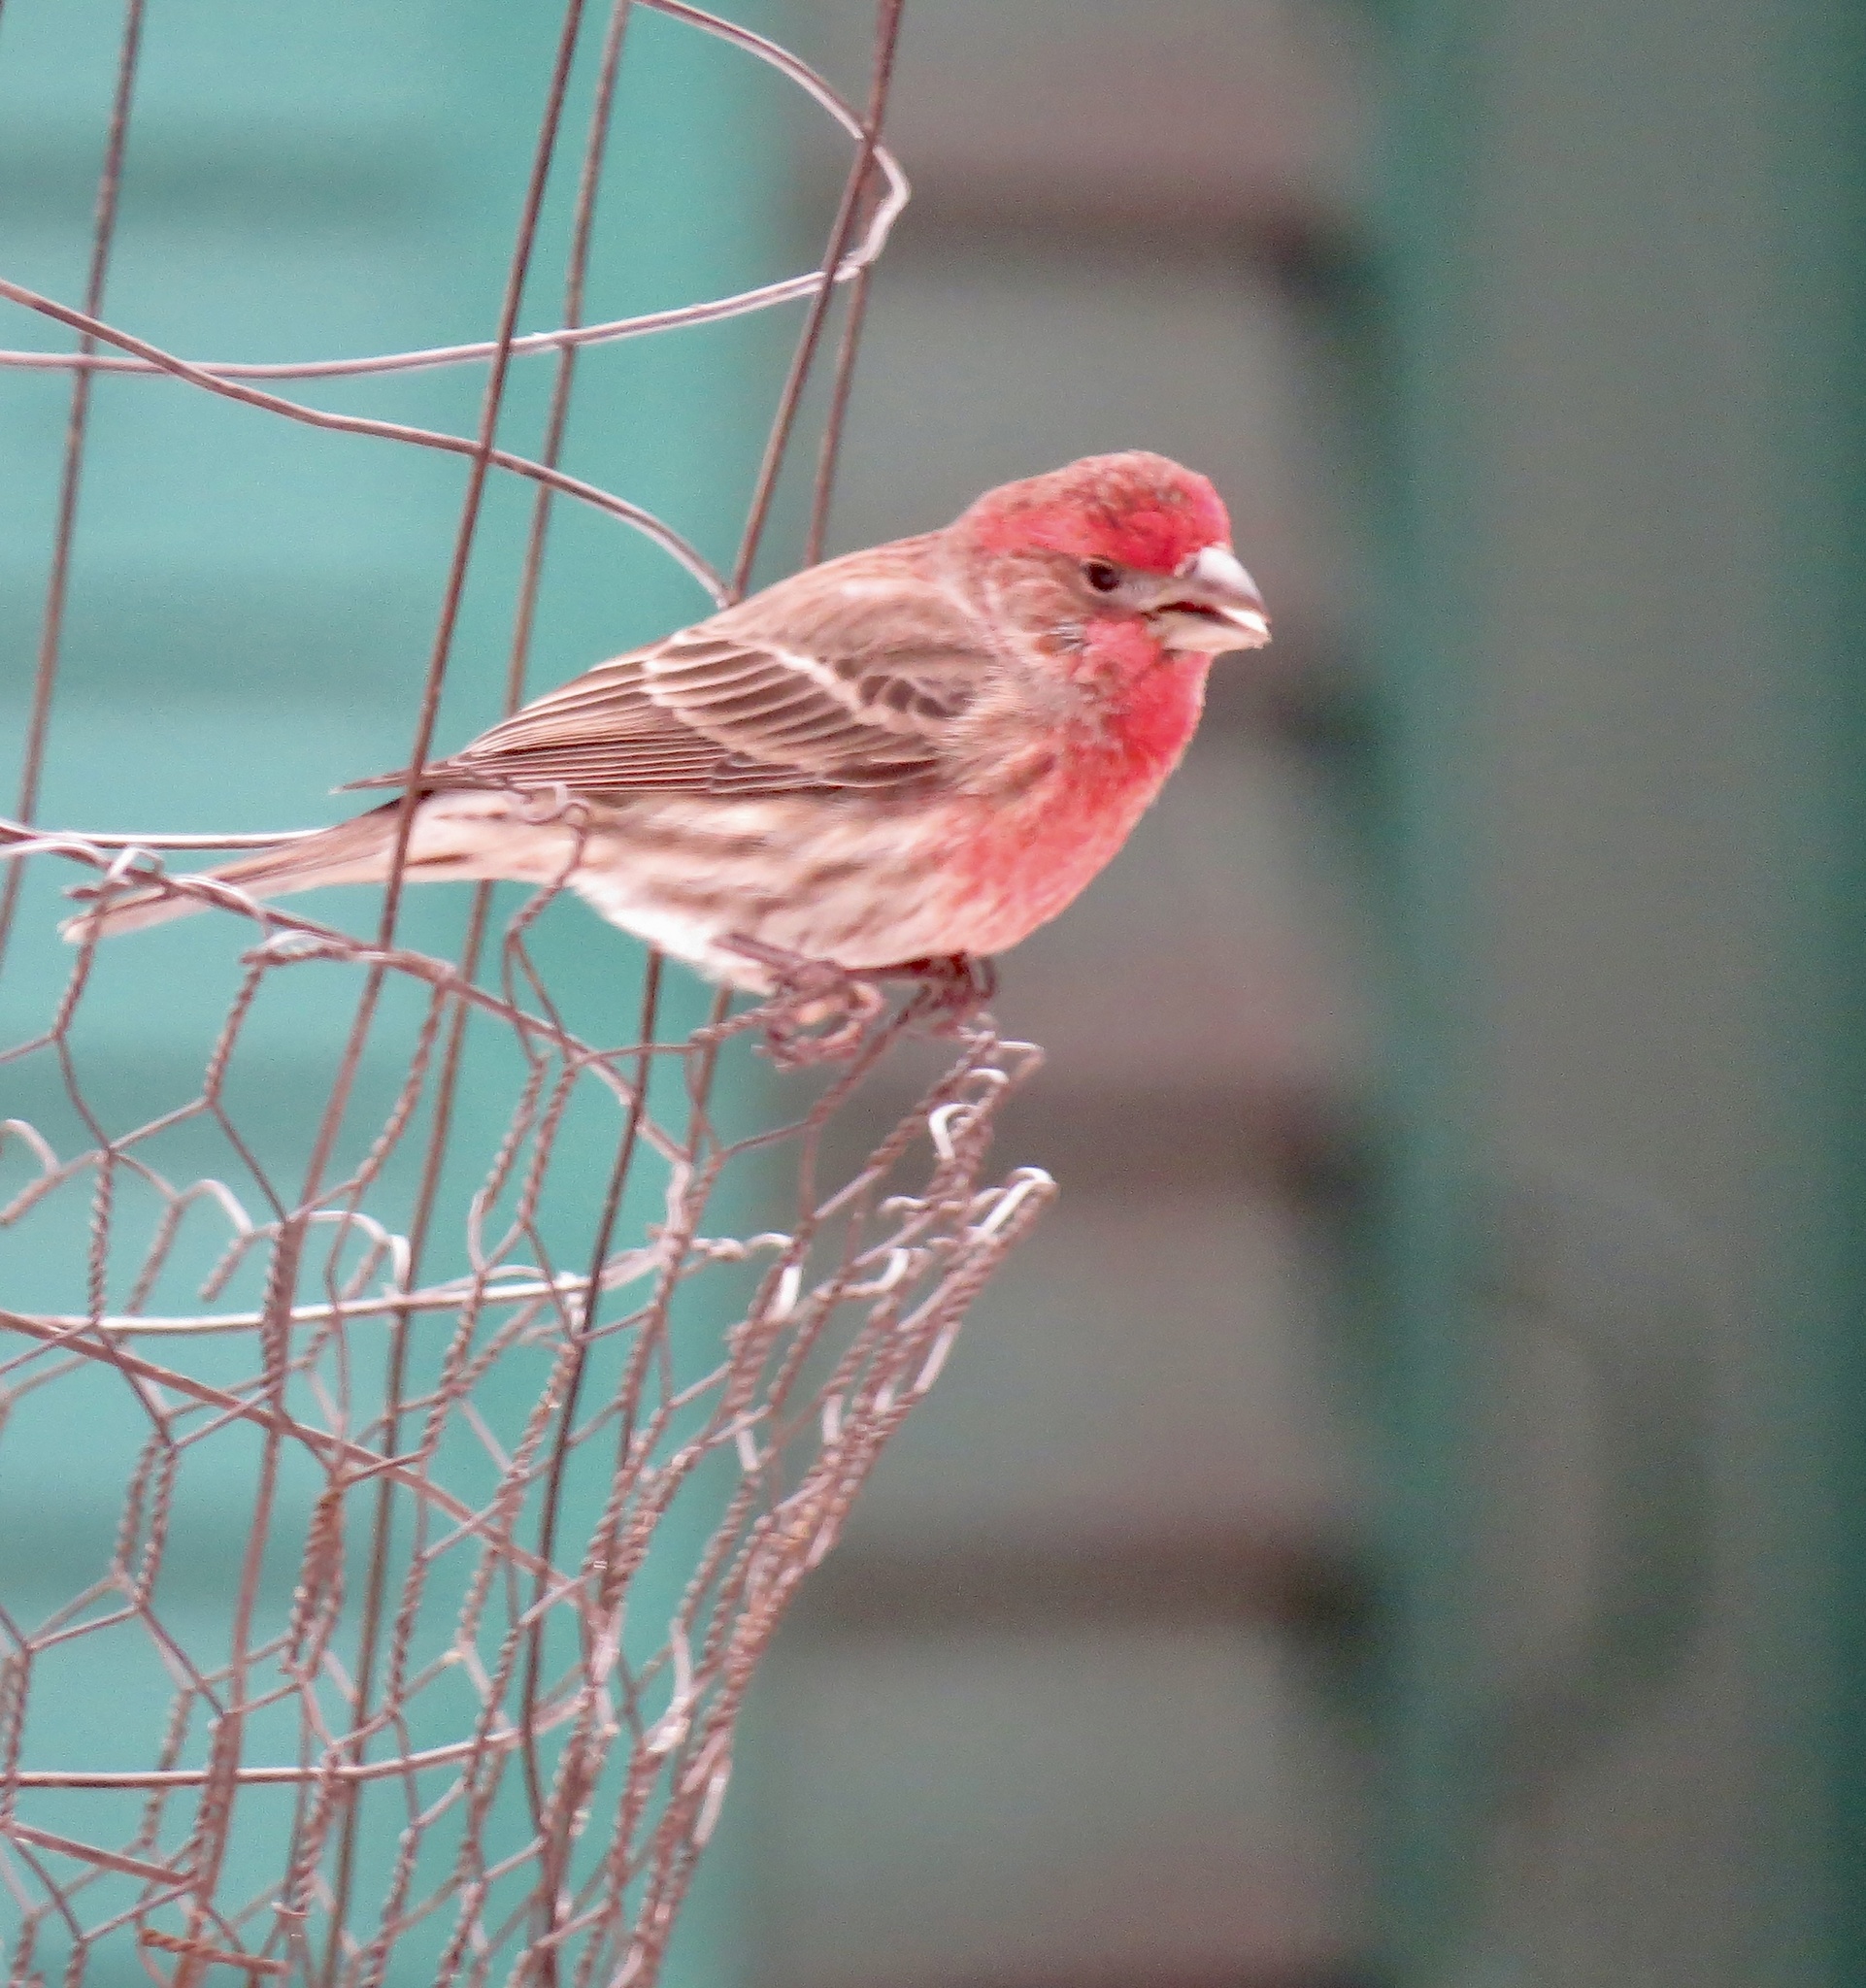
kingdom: Animalia
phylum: Chordata
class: Aves
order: Passeriformes
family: Fringillidae
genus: Haemorhous
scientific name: Haemorhous mexicanus
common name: House finch
